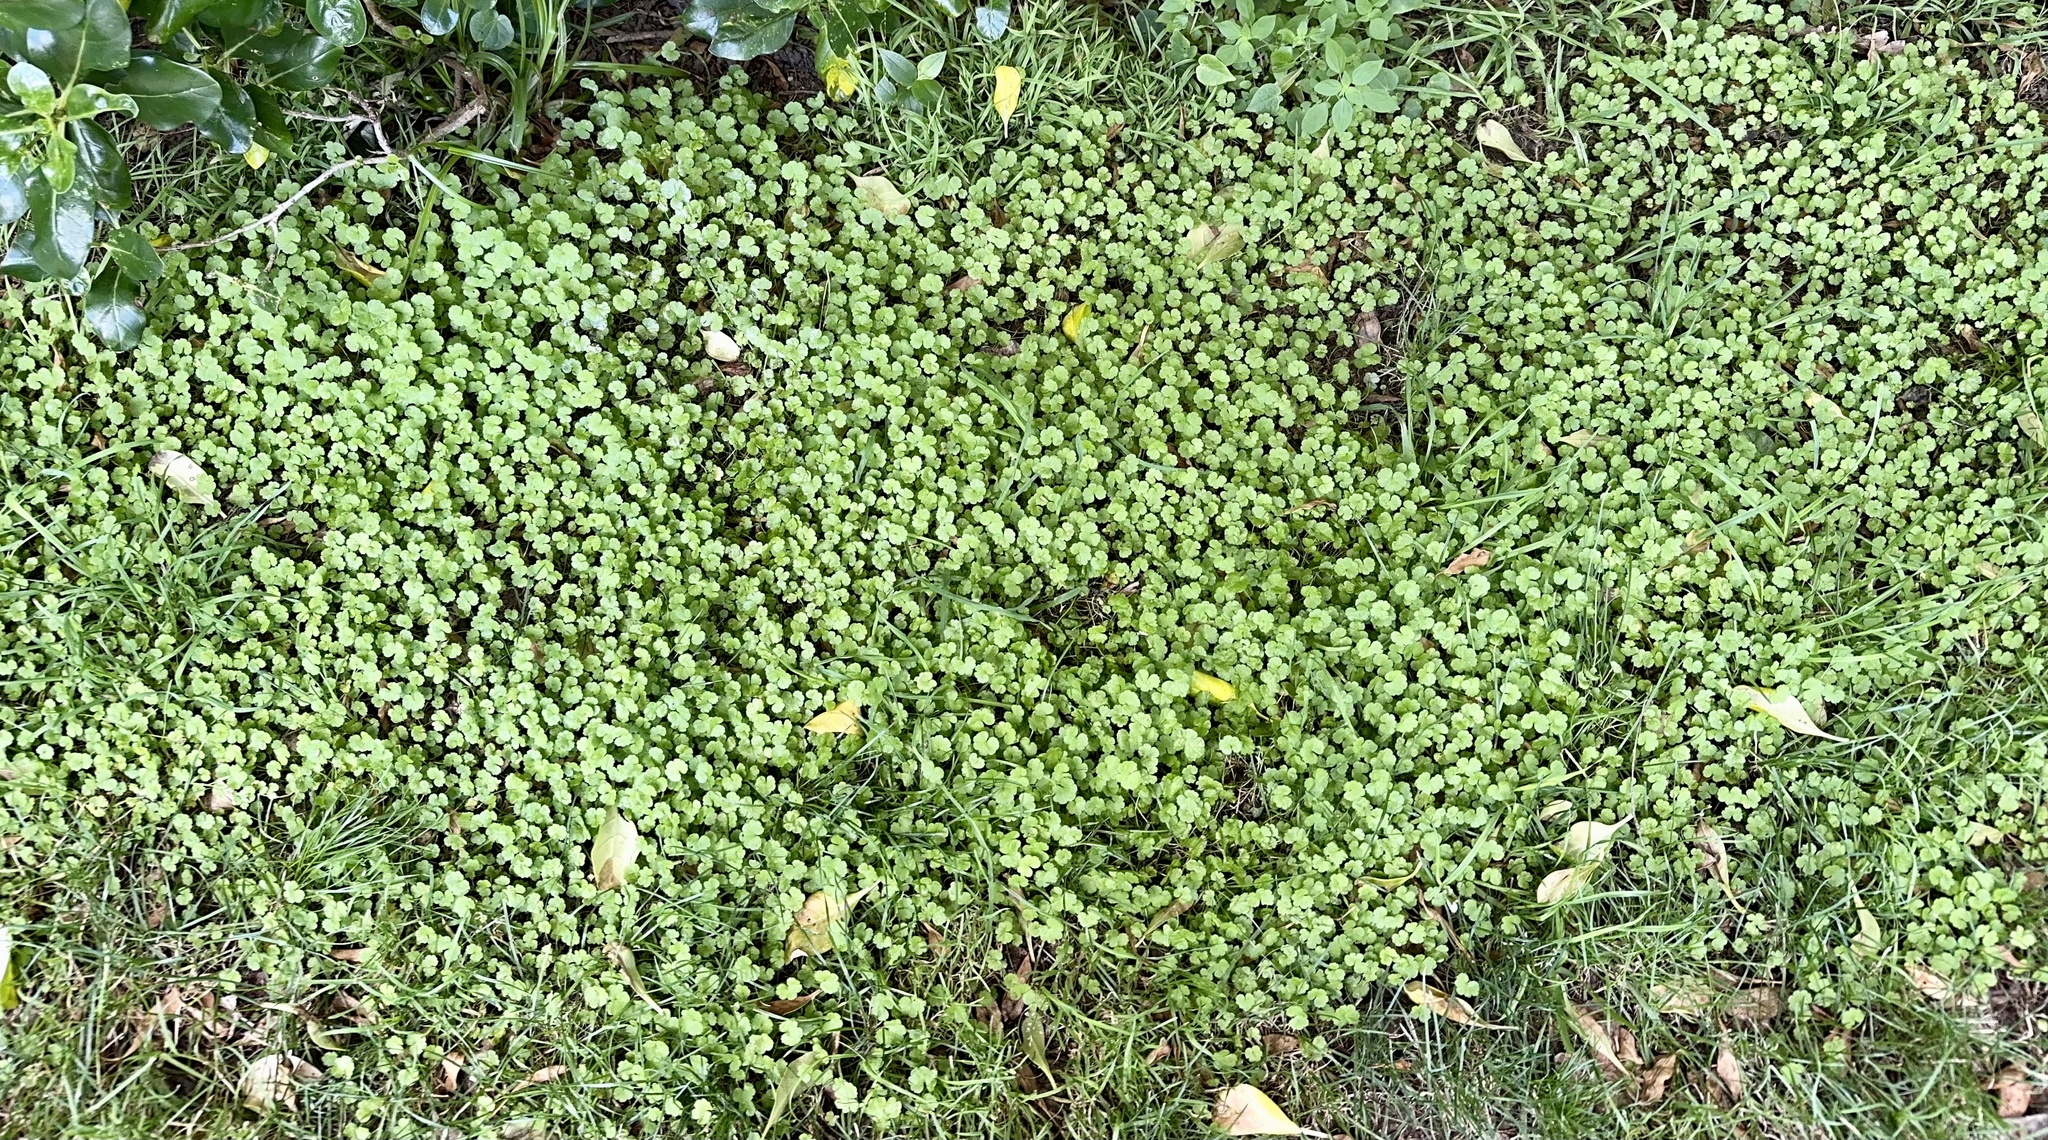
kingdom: Plantae
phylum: Tracheophyta
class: Magnoliopsida
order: Apiales
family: Araliaceae
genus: Hydrocotyle
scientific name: Hydrocotyle heteromeria
